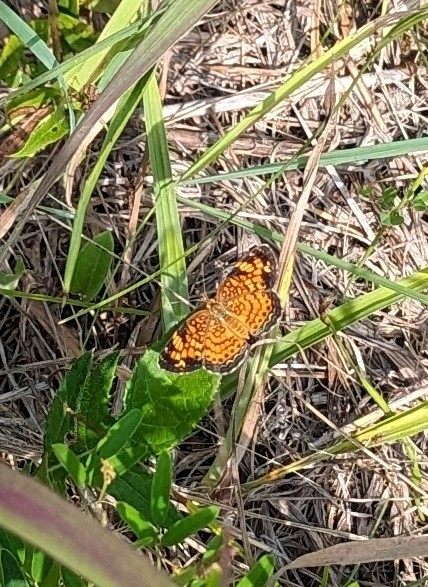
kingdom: Animalia
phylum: Arthropoda
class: Insecta
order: Lepidoptera
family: Nymphalidae
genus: Phyciodes
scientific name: Phyciodes tharos
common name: Pearl crescent
